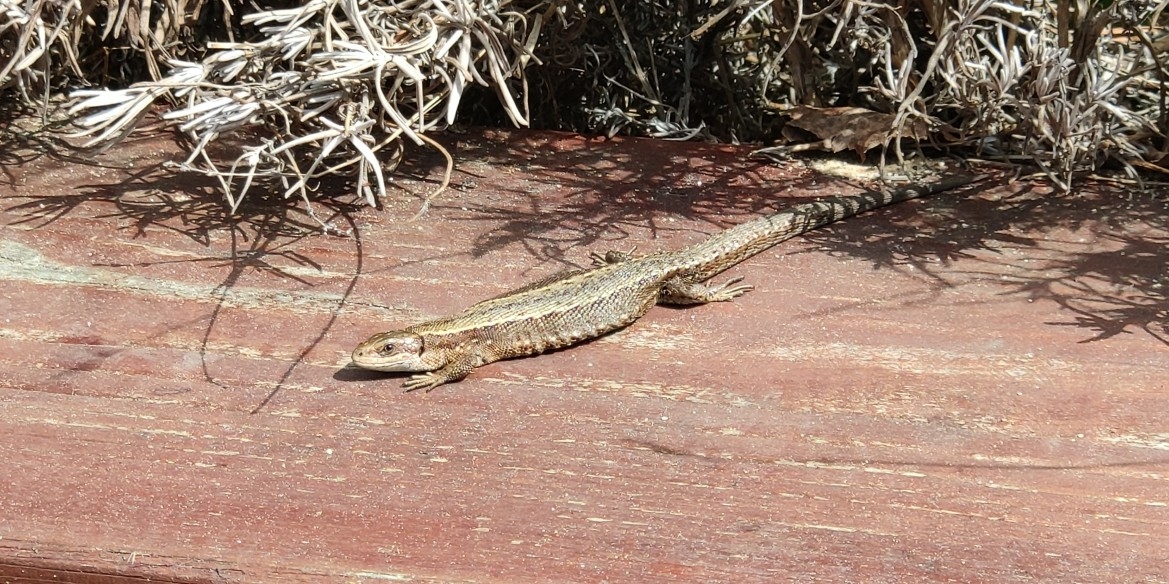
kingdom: Animalia
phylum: Chordata
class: Squamata
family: Lacertidae
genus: Zootoca
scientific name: Zootoca vivipara
